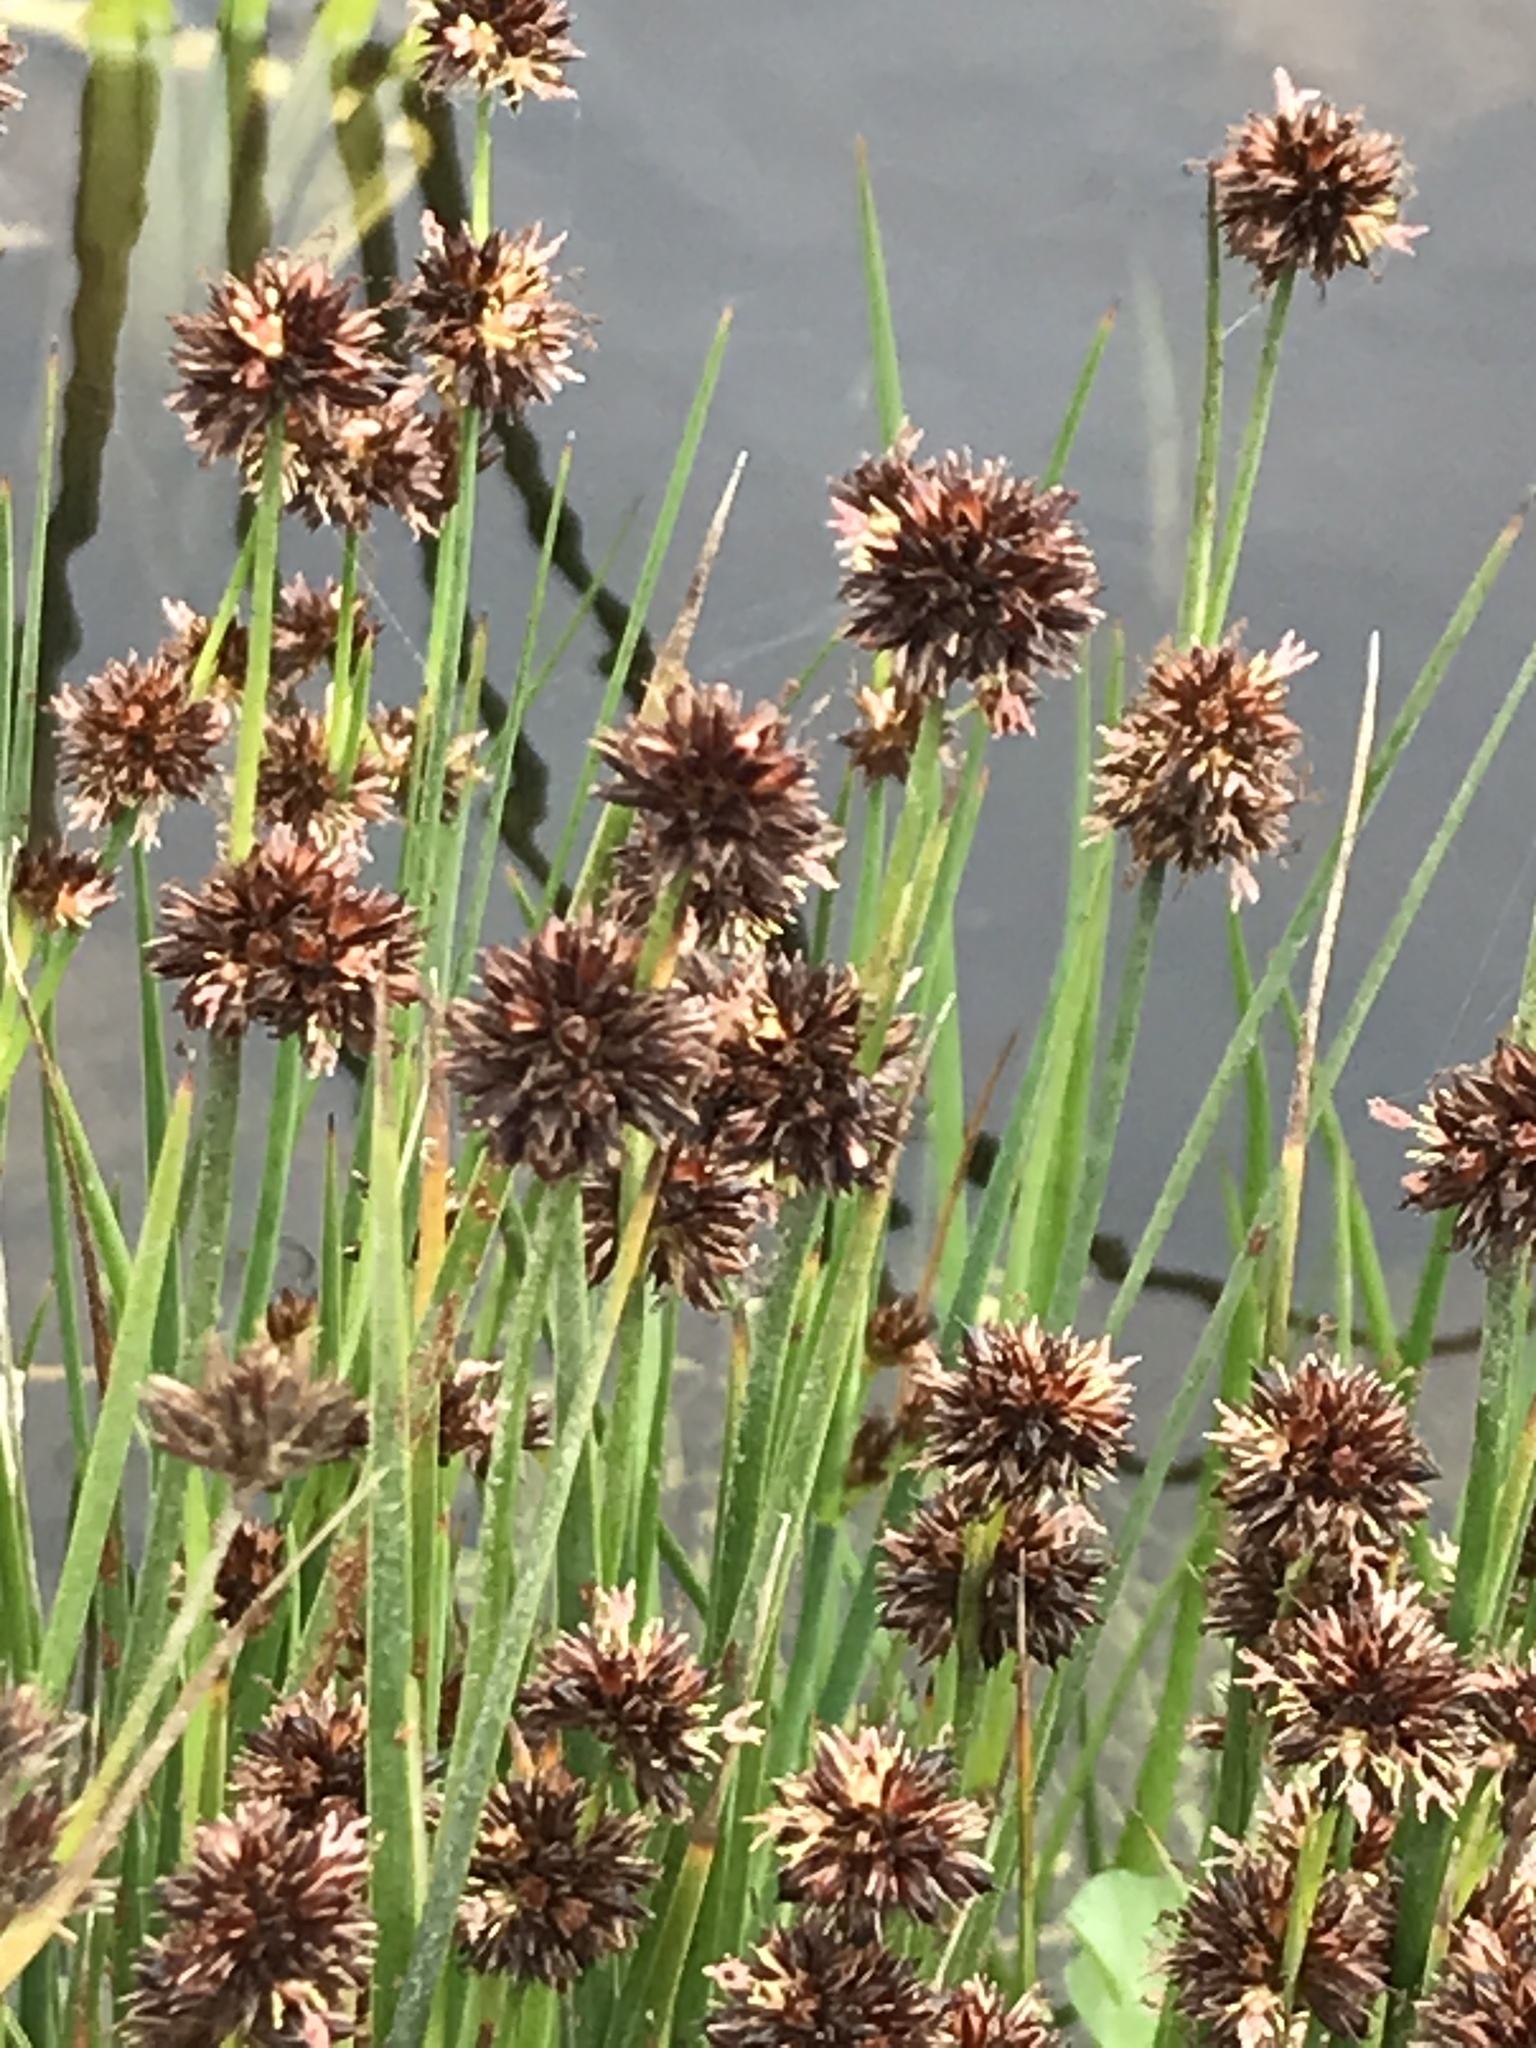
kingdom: Plantae
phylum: Tracheophyta
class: Liliopsida
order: Poales
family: Juncaceae
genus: Juncus
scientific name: Juncus ensifolius
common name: Sword-leaved rush
